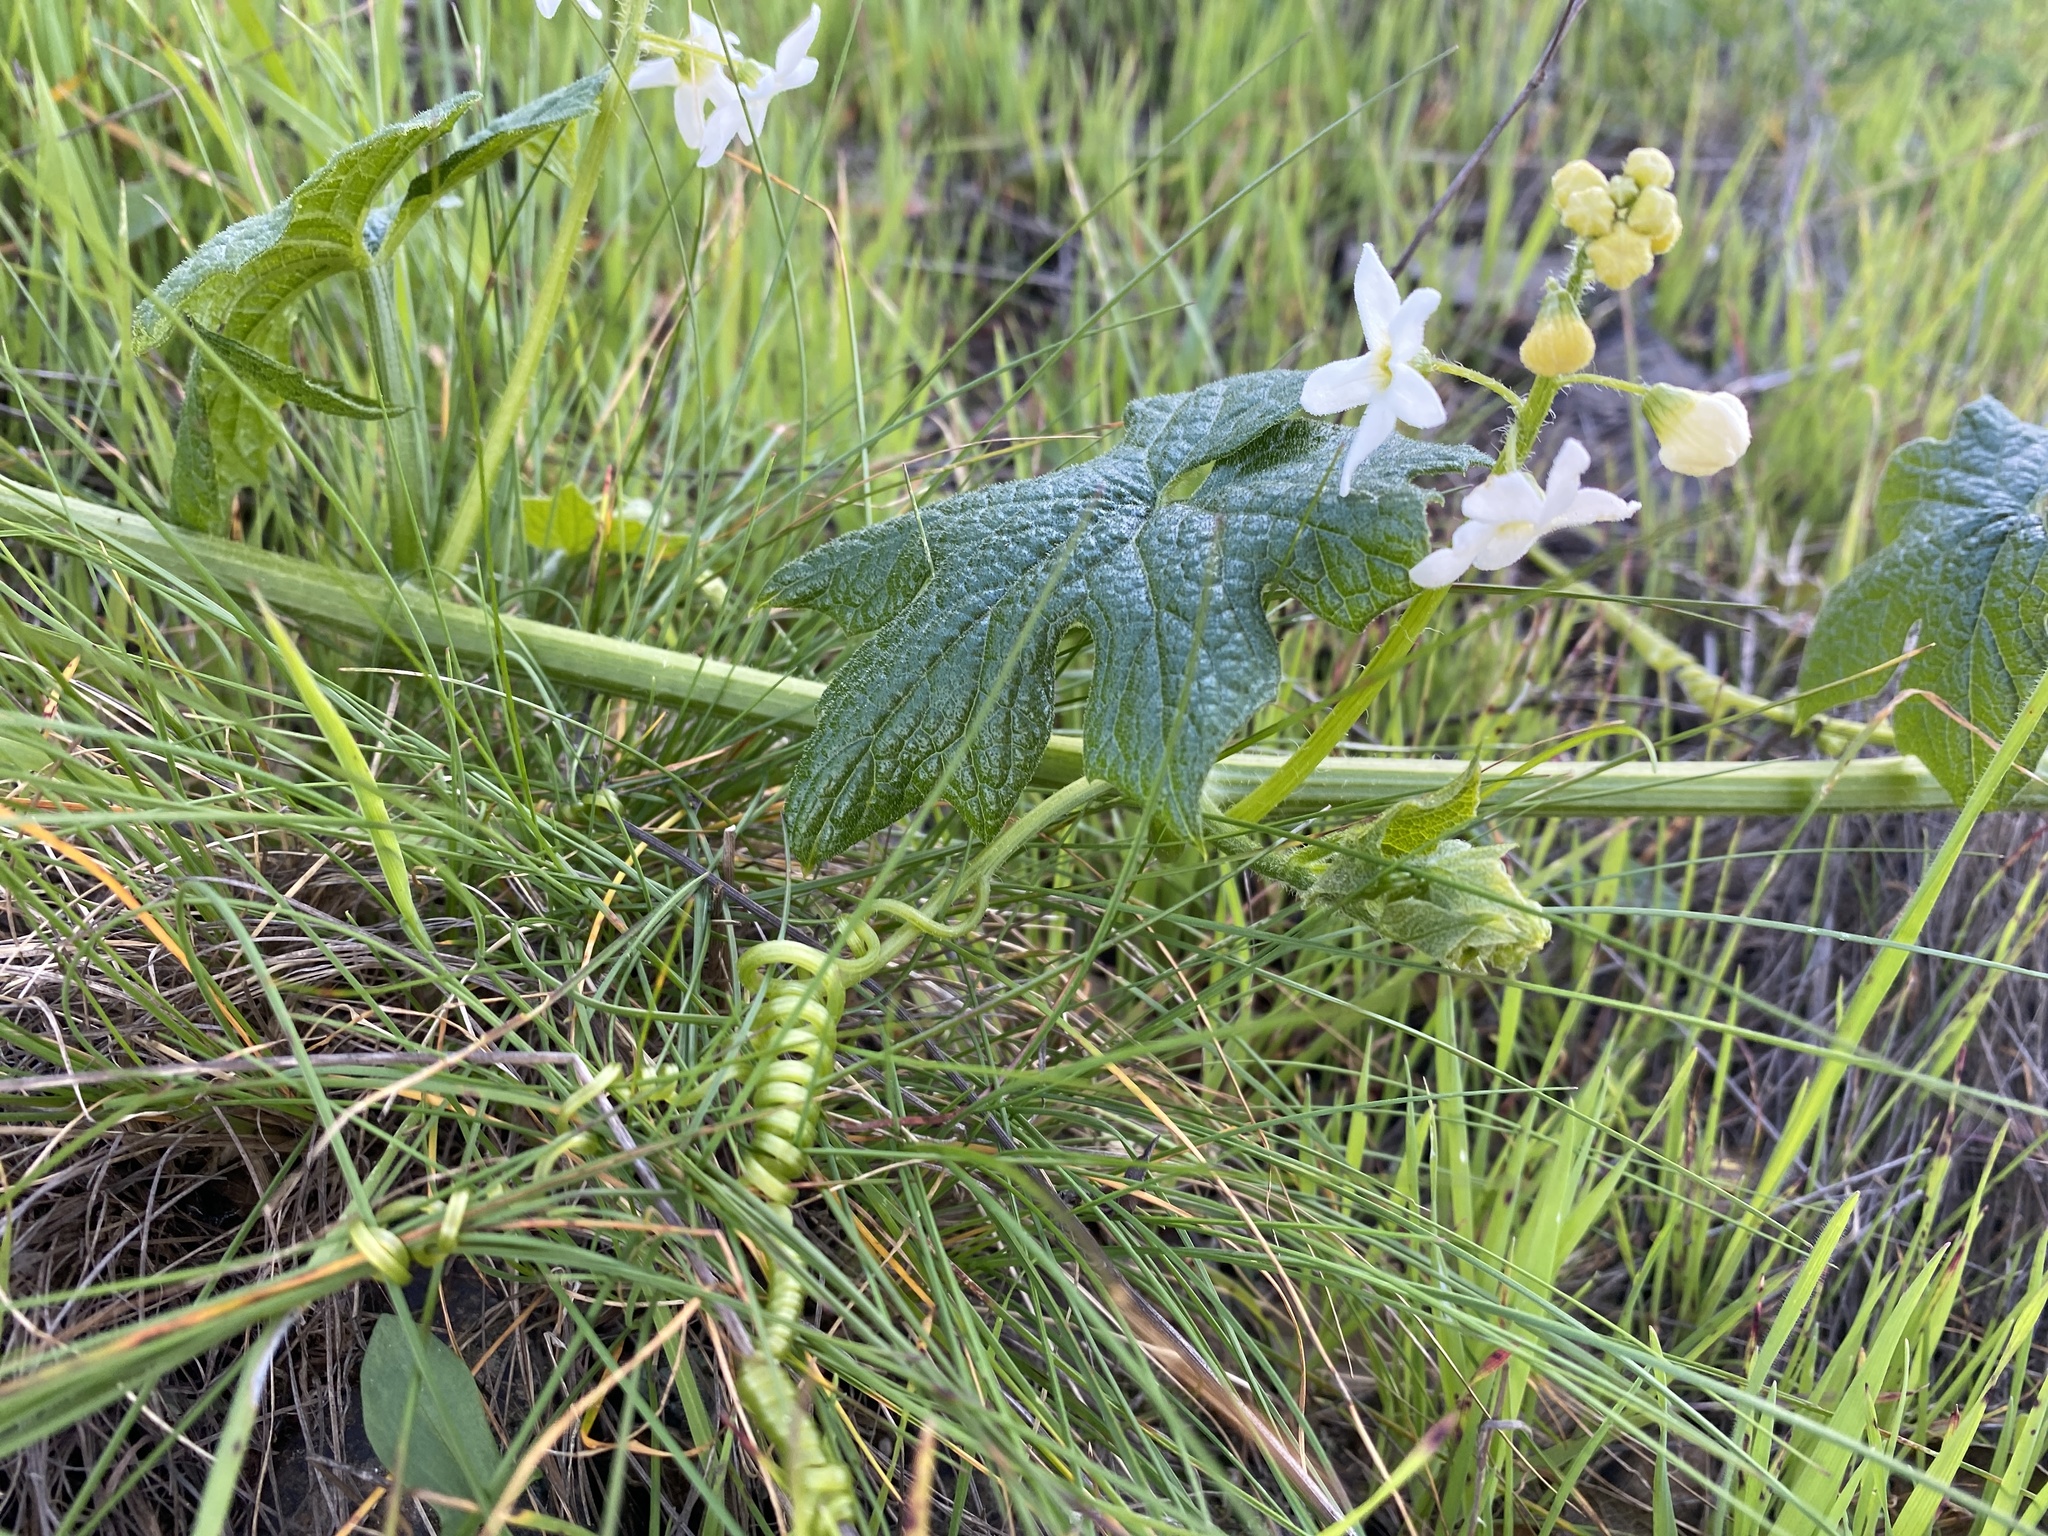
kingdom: Plantae
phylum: Tracheophyta
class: Magnoliopsida
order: Cucurbitales
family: Cucurbitaceae
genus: Marah
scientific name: Marah oregana
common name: Coastal manroot
